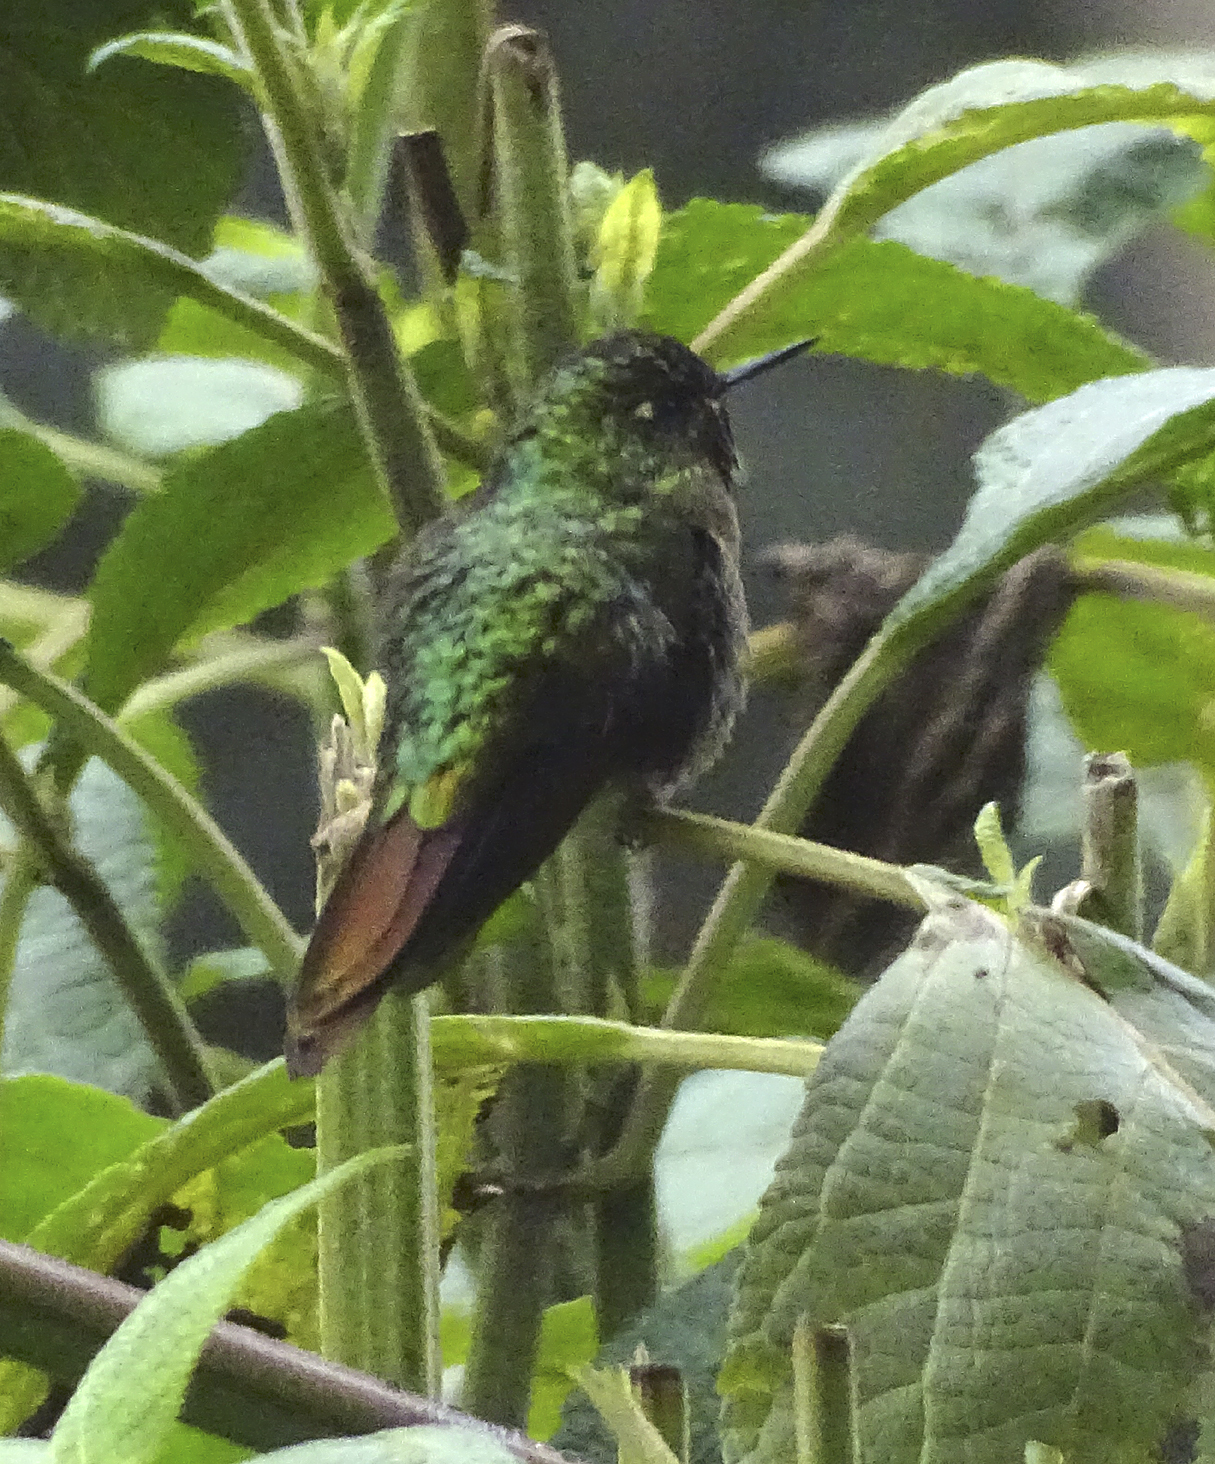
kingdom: Animalia
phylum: Chordata
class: Aves
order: Apodiformes
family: Trochilidae
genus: Metallura
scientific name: Metallura tyrianthina
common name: Tyrian metaltail
